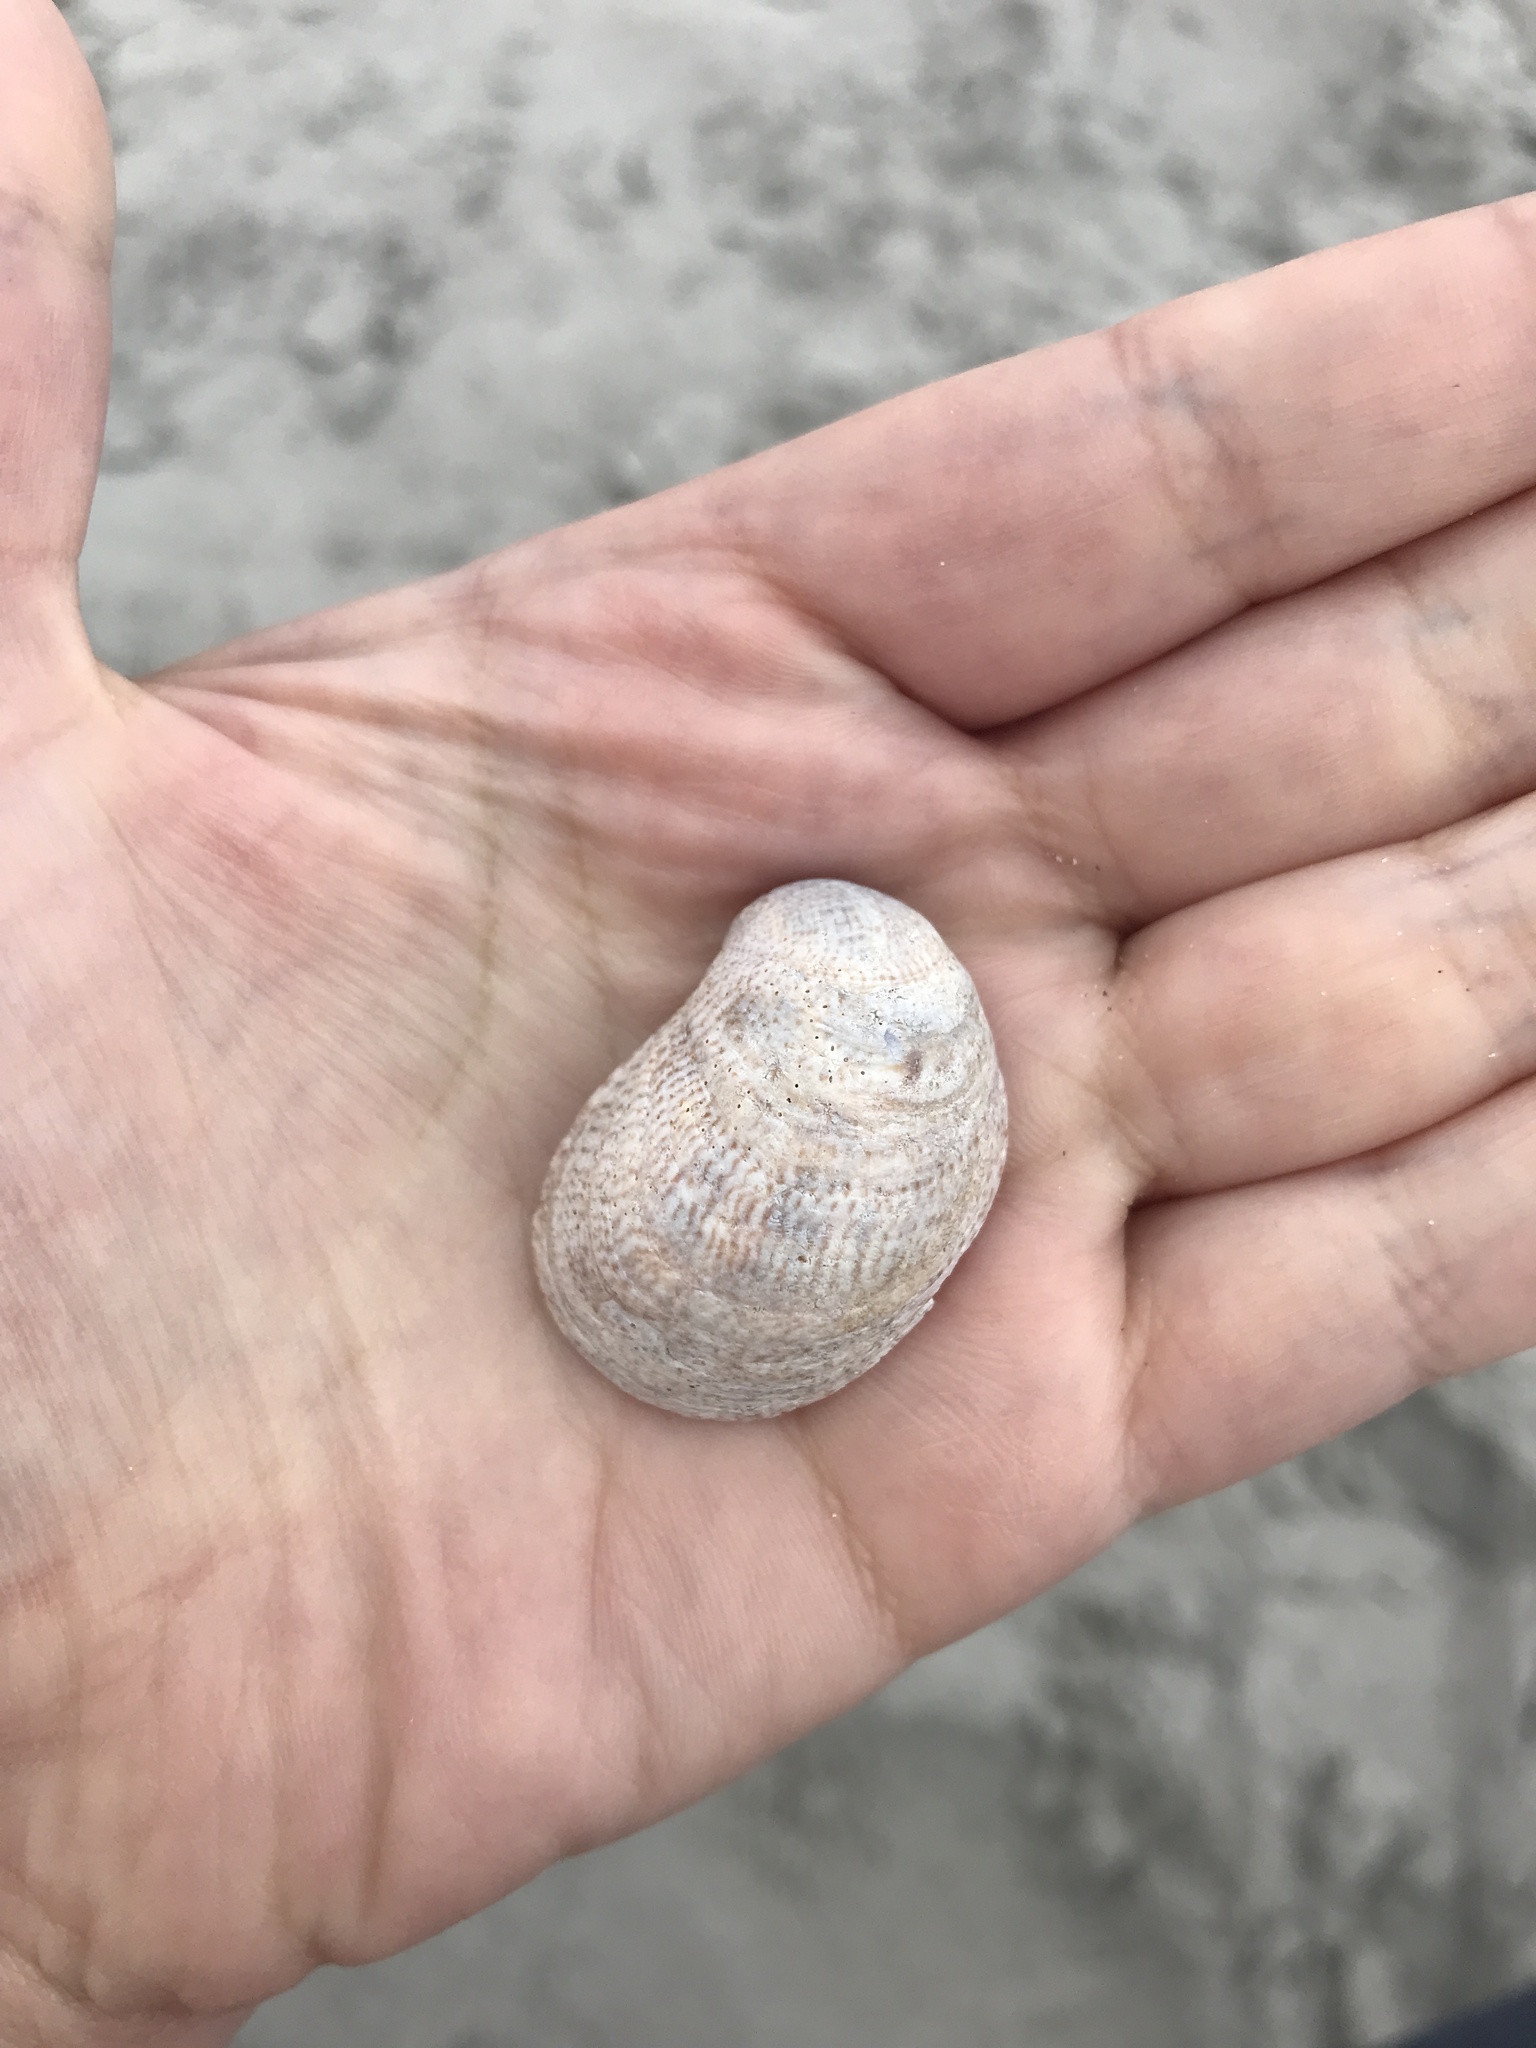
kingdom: Animalia
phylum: Mollusca
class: Gastropoda
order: Littorinimorpha
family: Calyptraeidae
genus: Crepidula
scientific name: Crepidula fornicata
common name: Slipper limpet
